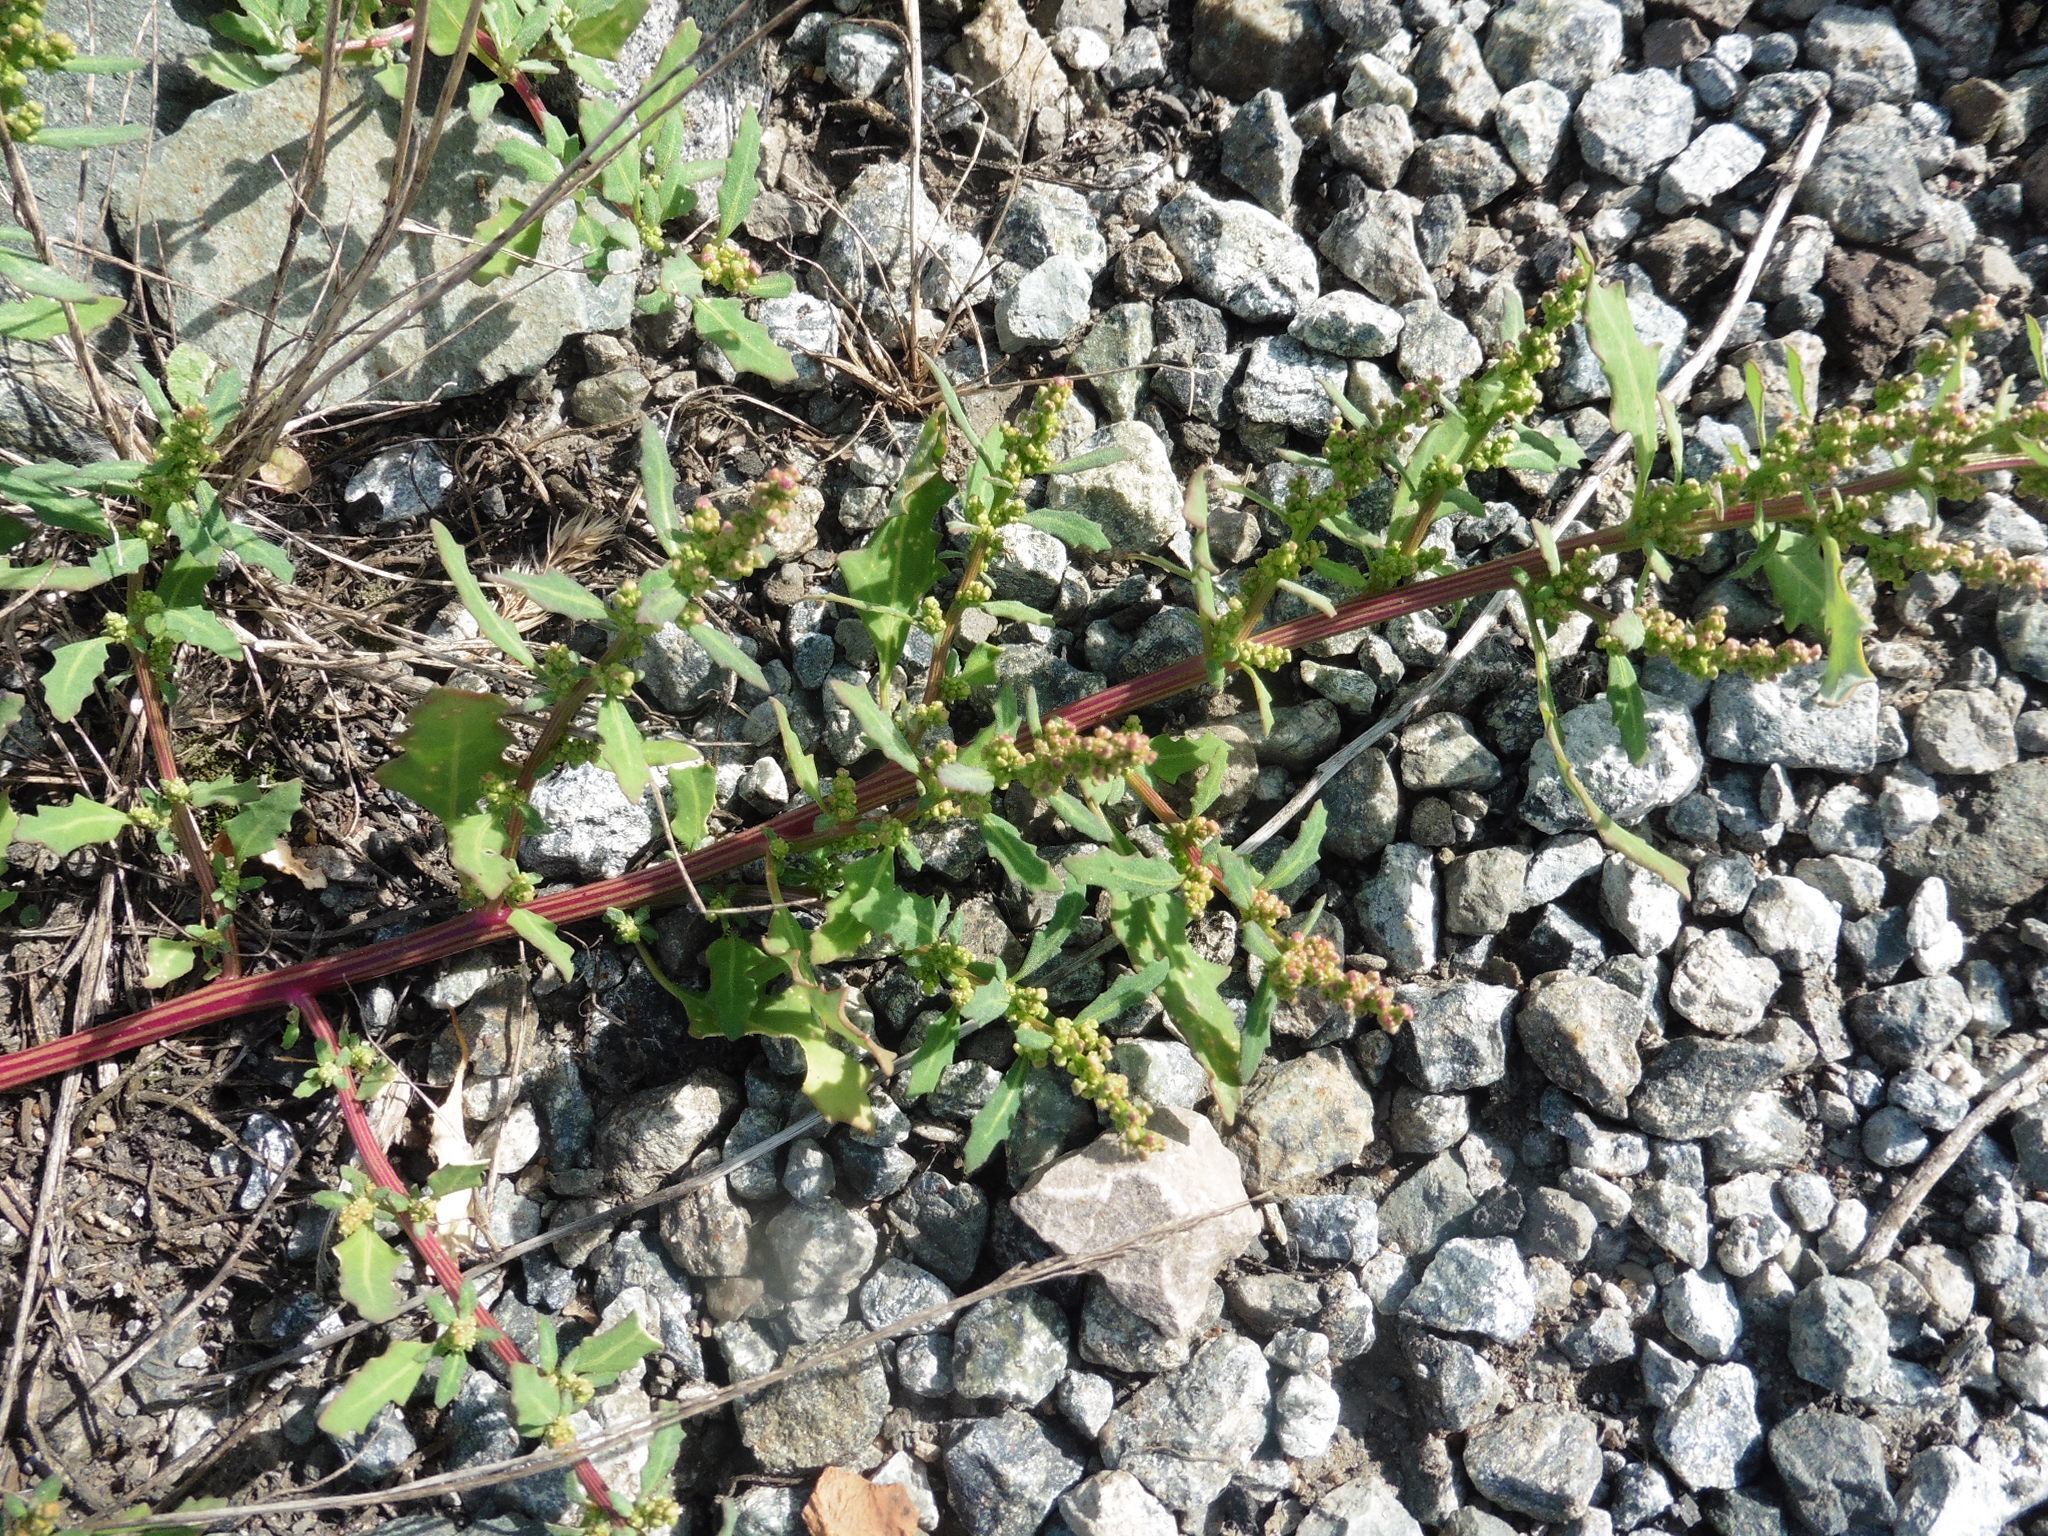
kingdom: Plantae
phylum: Tracheophyta
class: Magnoliopsida
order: Caryophyllales
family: Amaranthaceae
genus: Oxybasis
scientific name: Oxybasis glauca
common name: Glaucous goosefoot
